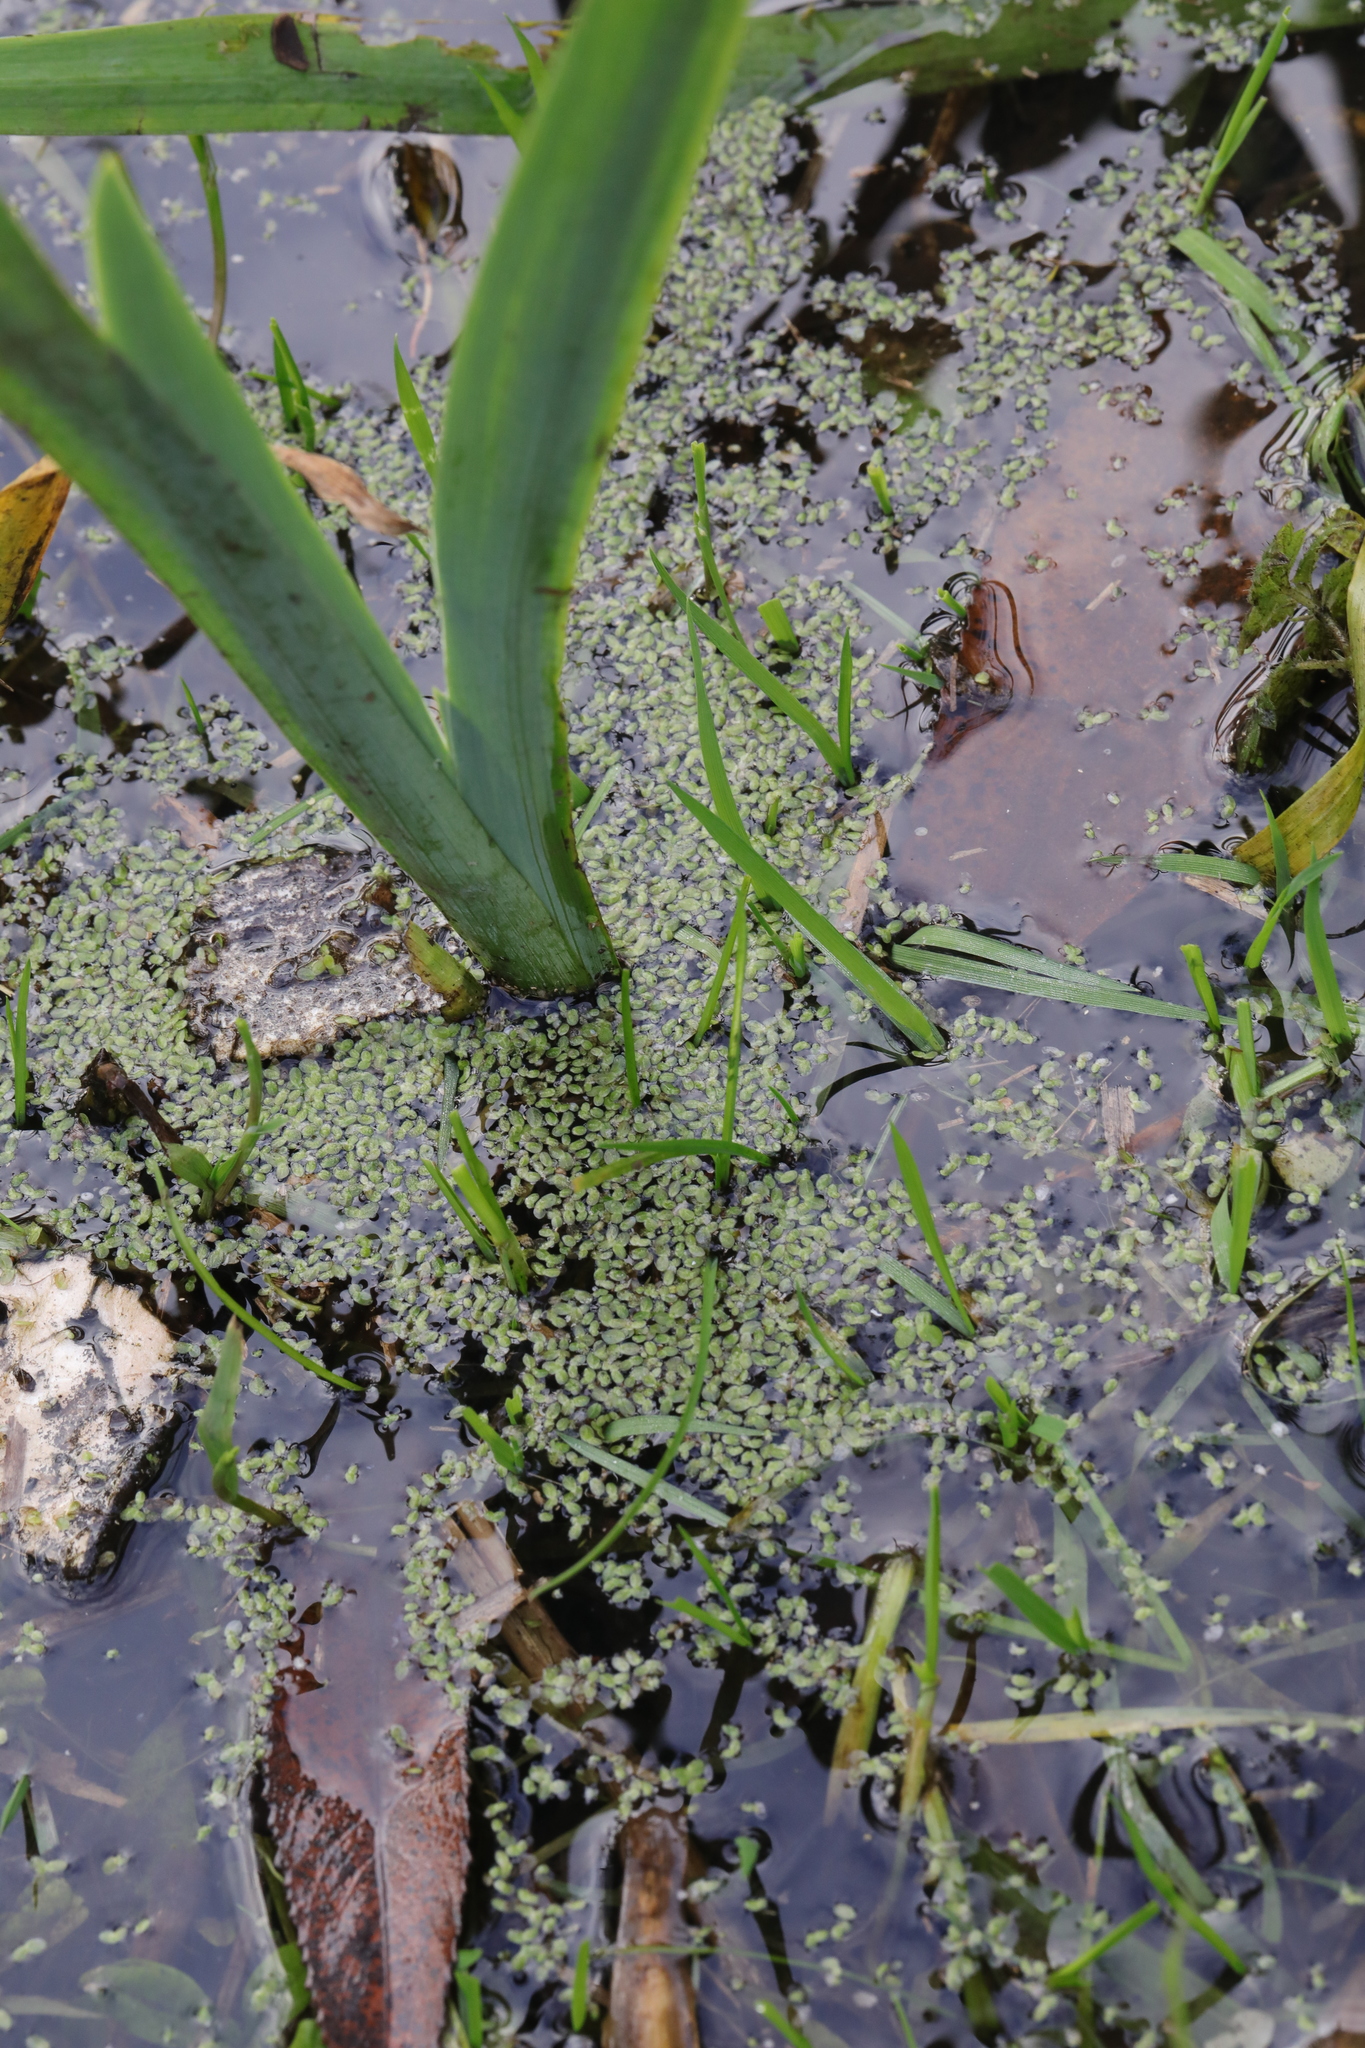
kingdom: Plantae
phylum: Tracheophyta
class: Liliopsida
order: Alismatales
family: Araceae
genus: Lemna
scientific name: Lemna minuta
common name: Least duckweed
